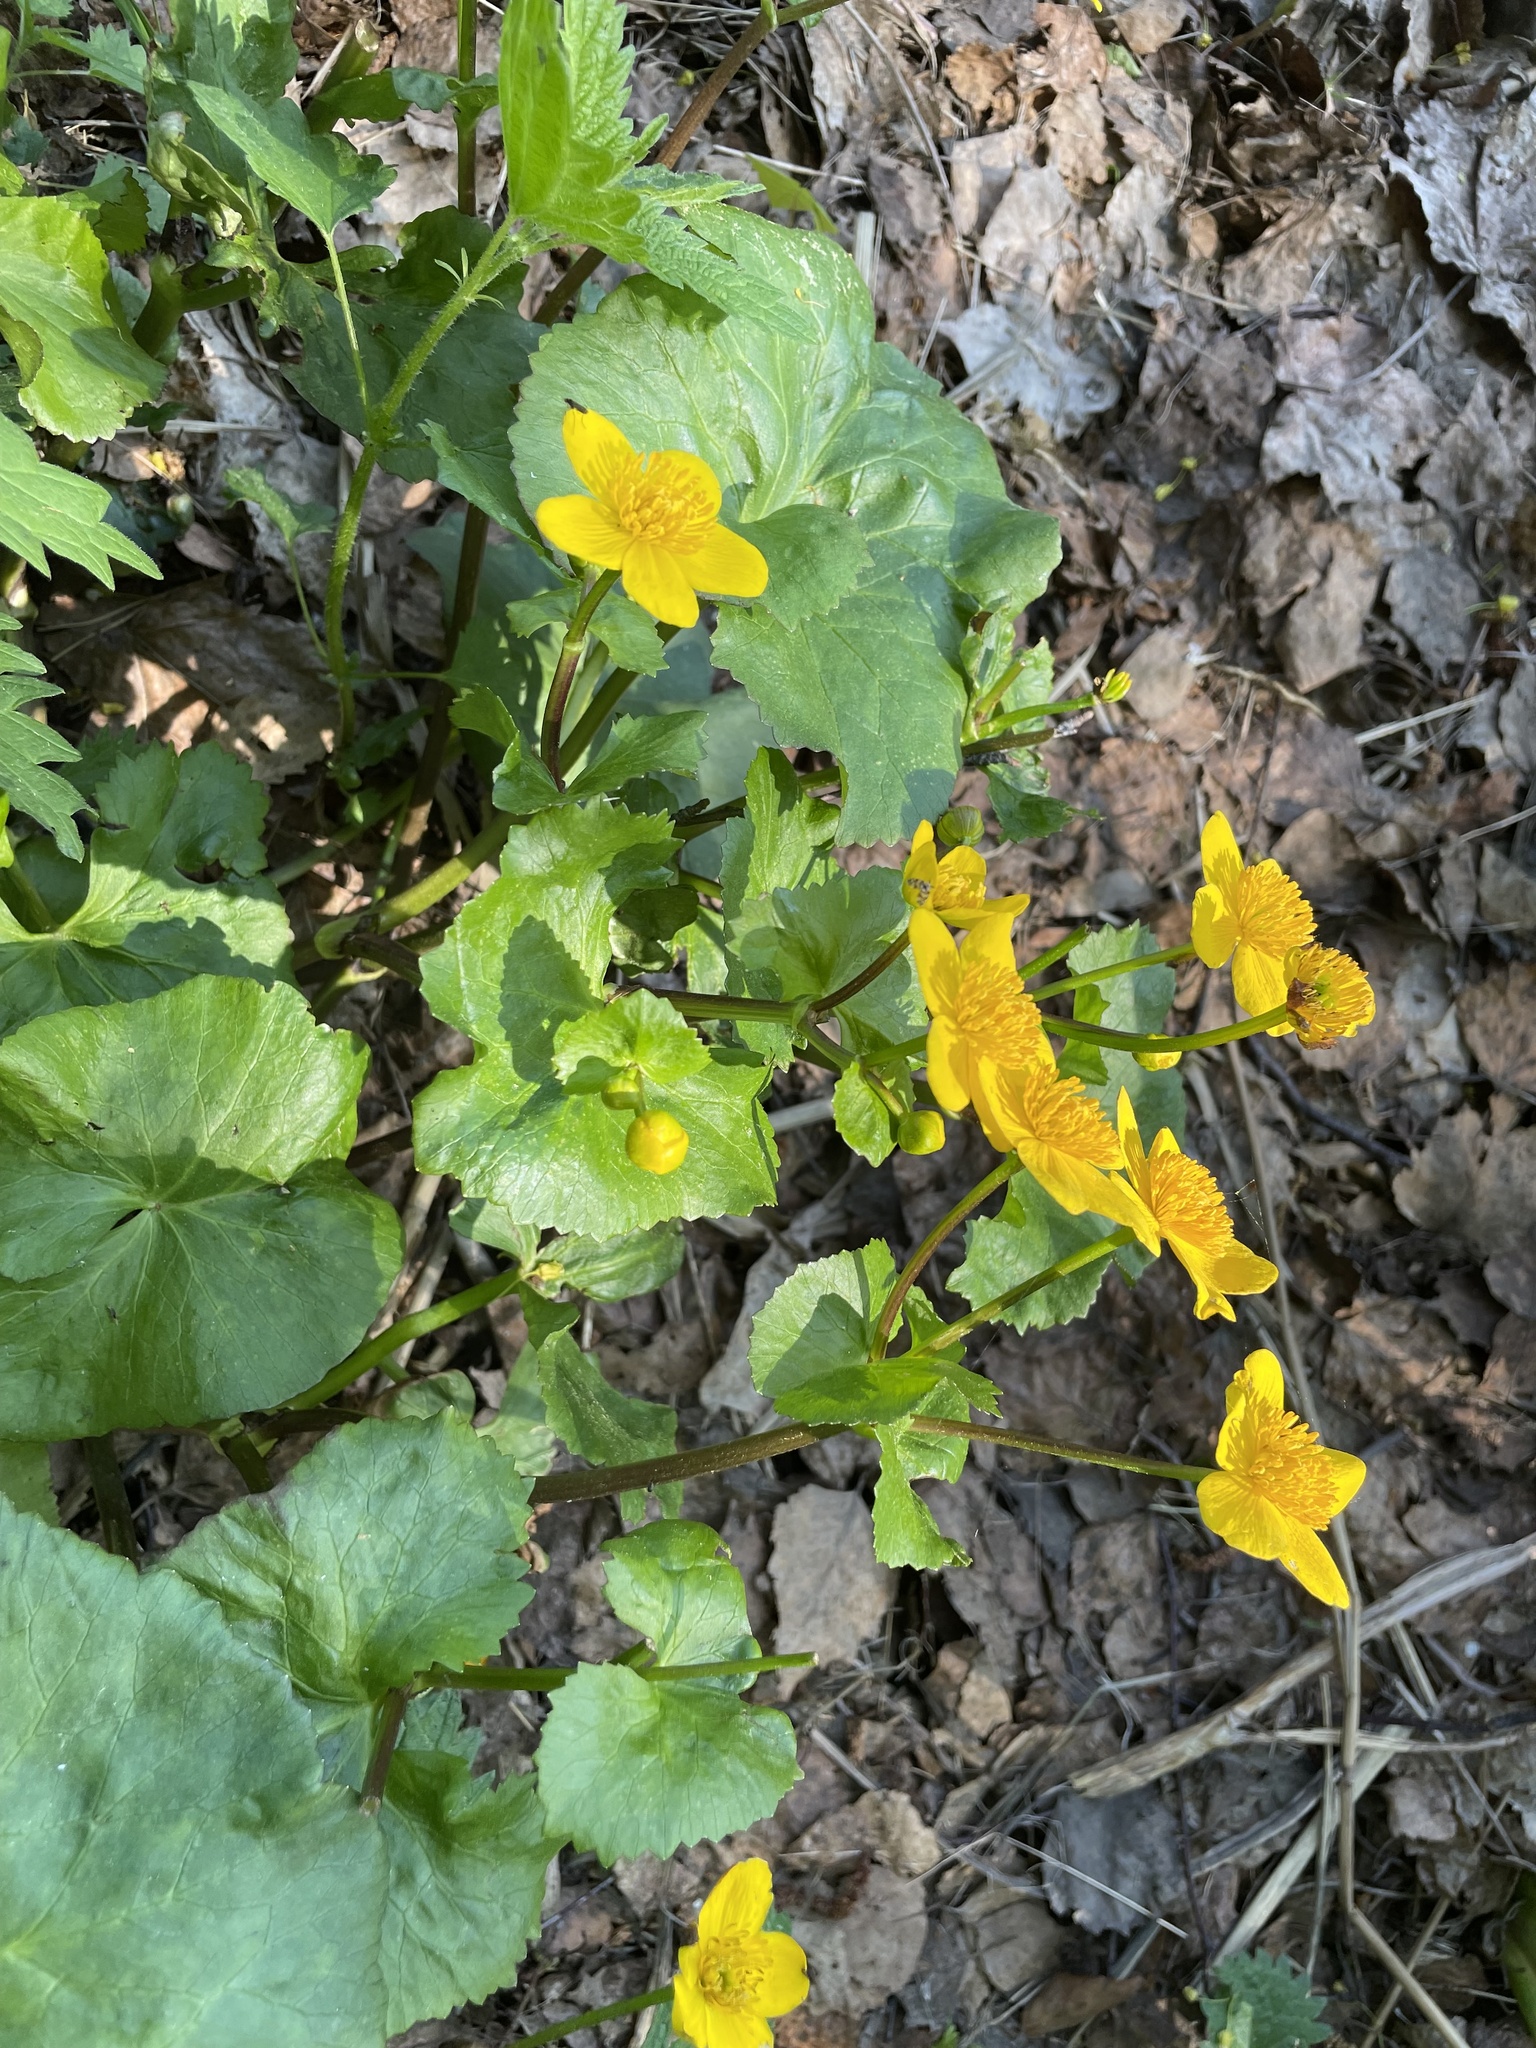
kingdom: Plantae
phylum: Tracheophyta
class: Magnoliopsida
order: Ranunculales
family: Ranunculaceae
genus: Caltha
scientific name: Caltha palustris
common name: Marsh marigold
